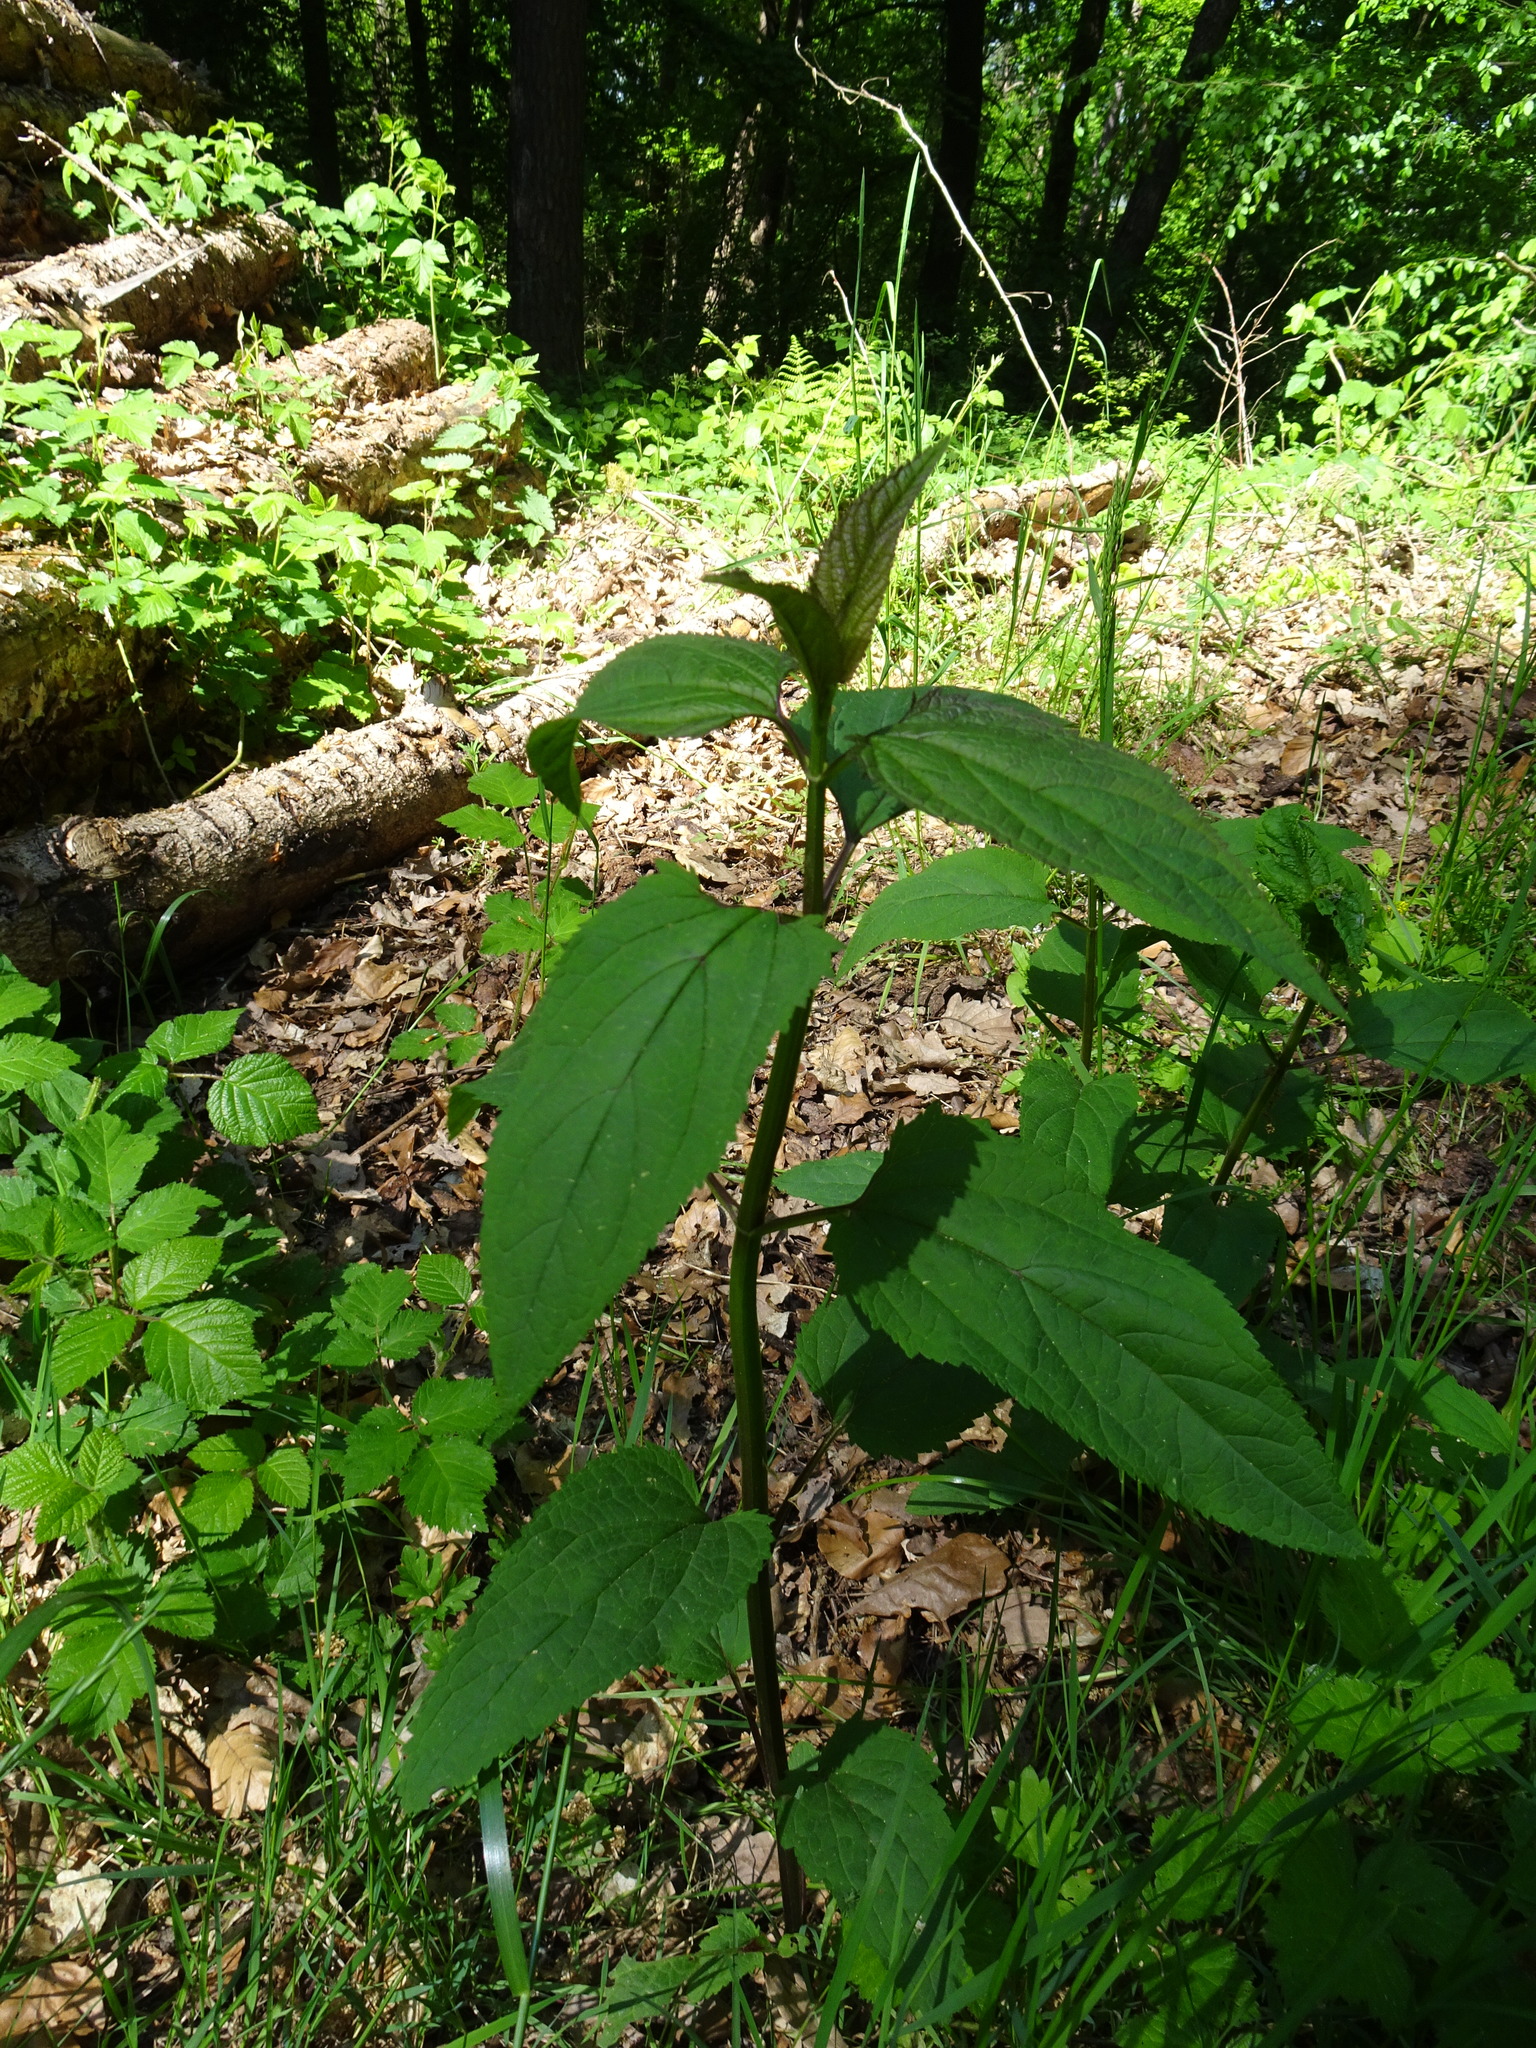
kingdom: Plantae
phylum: Tracheophyta
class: Magnoliopsida
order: Lamiales
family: Scrophulariaceae
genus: Scrophularia
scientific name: Scrophularia nodosa
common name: Common figwort
